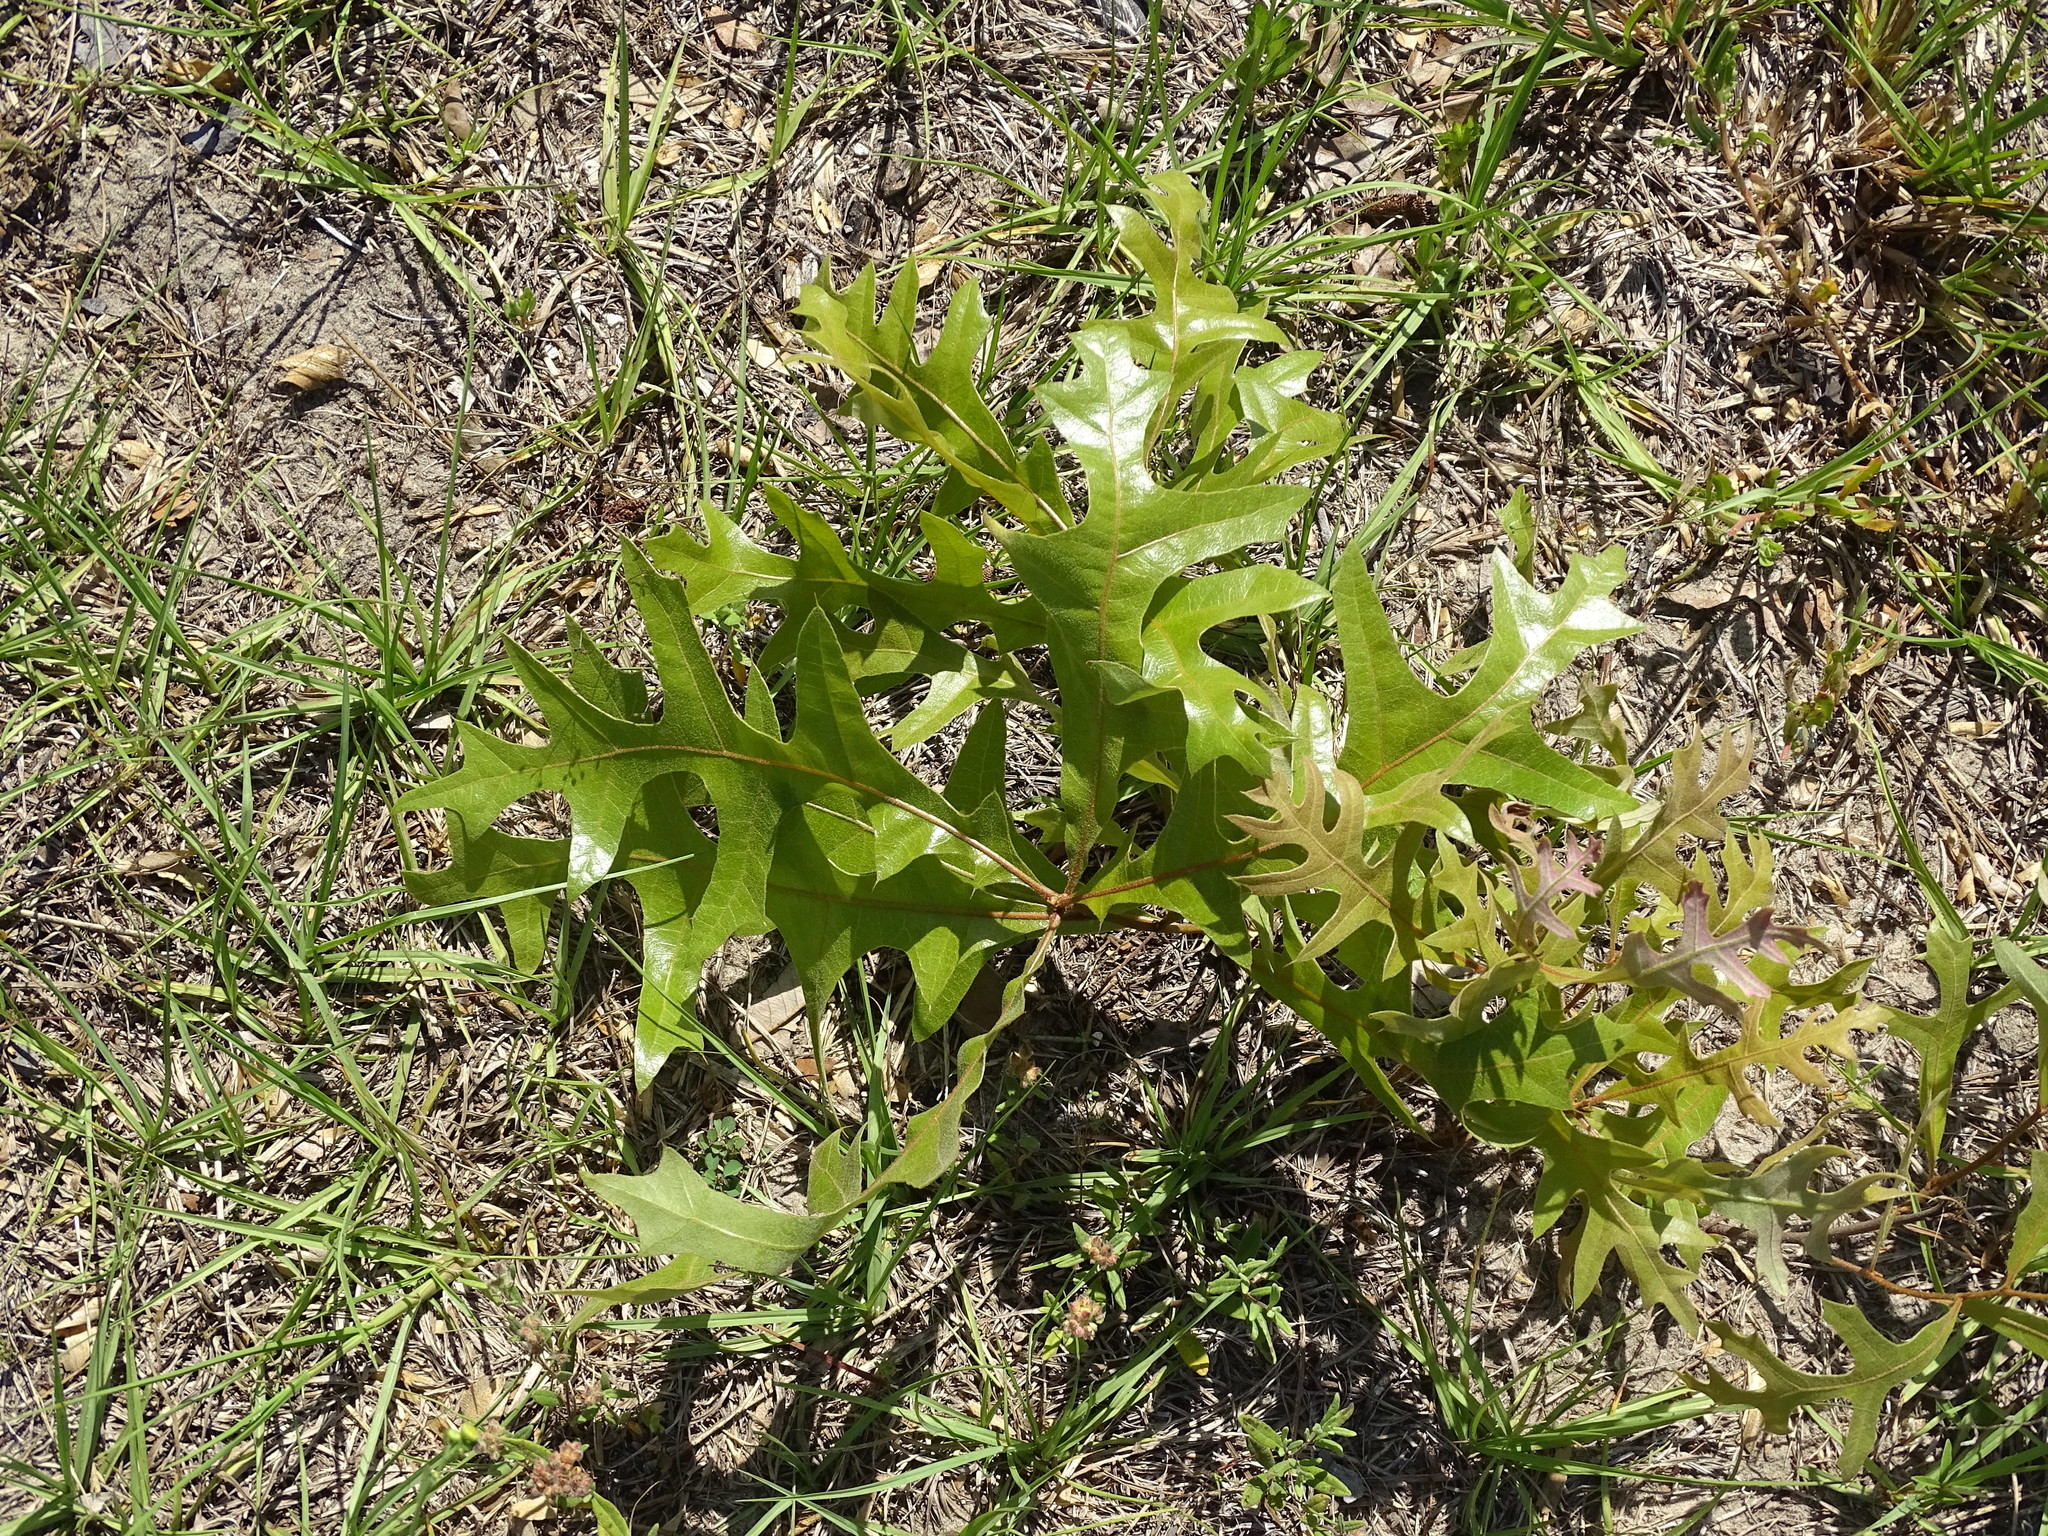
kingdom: Plantae
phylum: Tracheophyta
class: Magnoliopsida
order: Fagales
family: Fagaceae
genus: Quercus
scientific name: Quercus laevis
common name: Turkey oak
